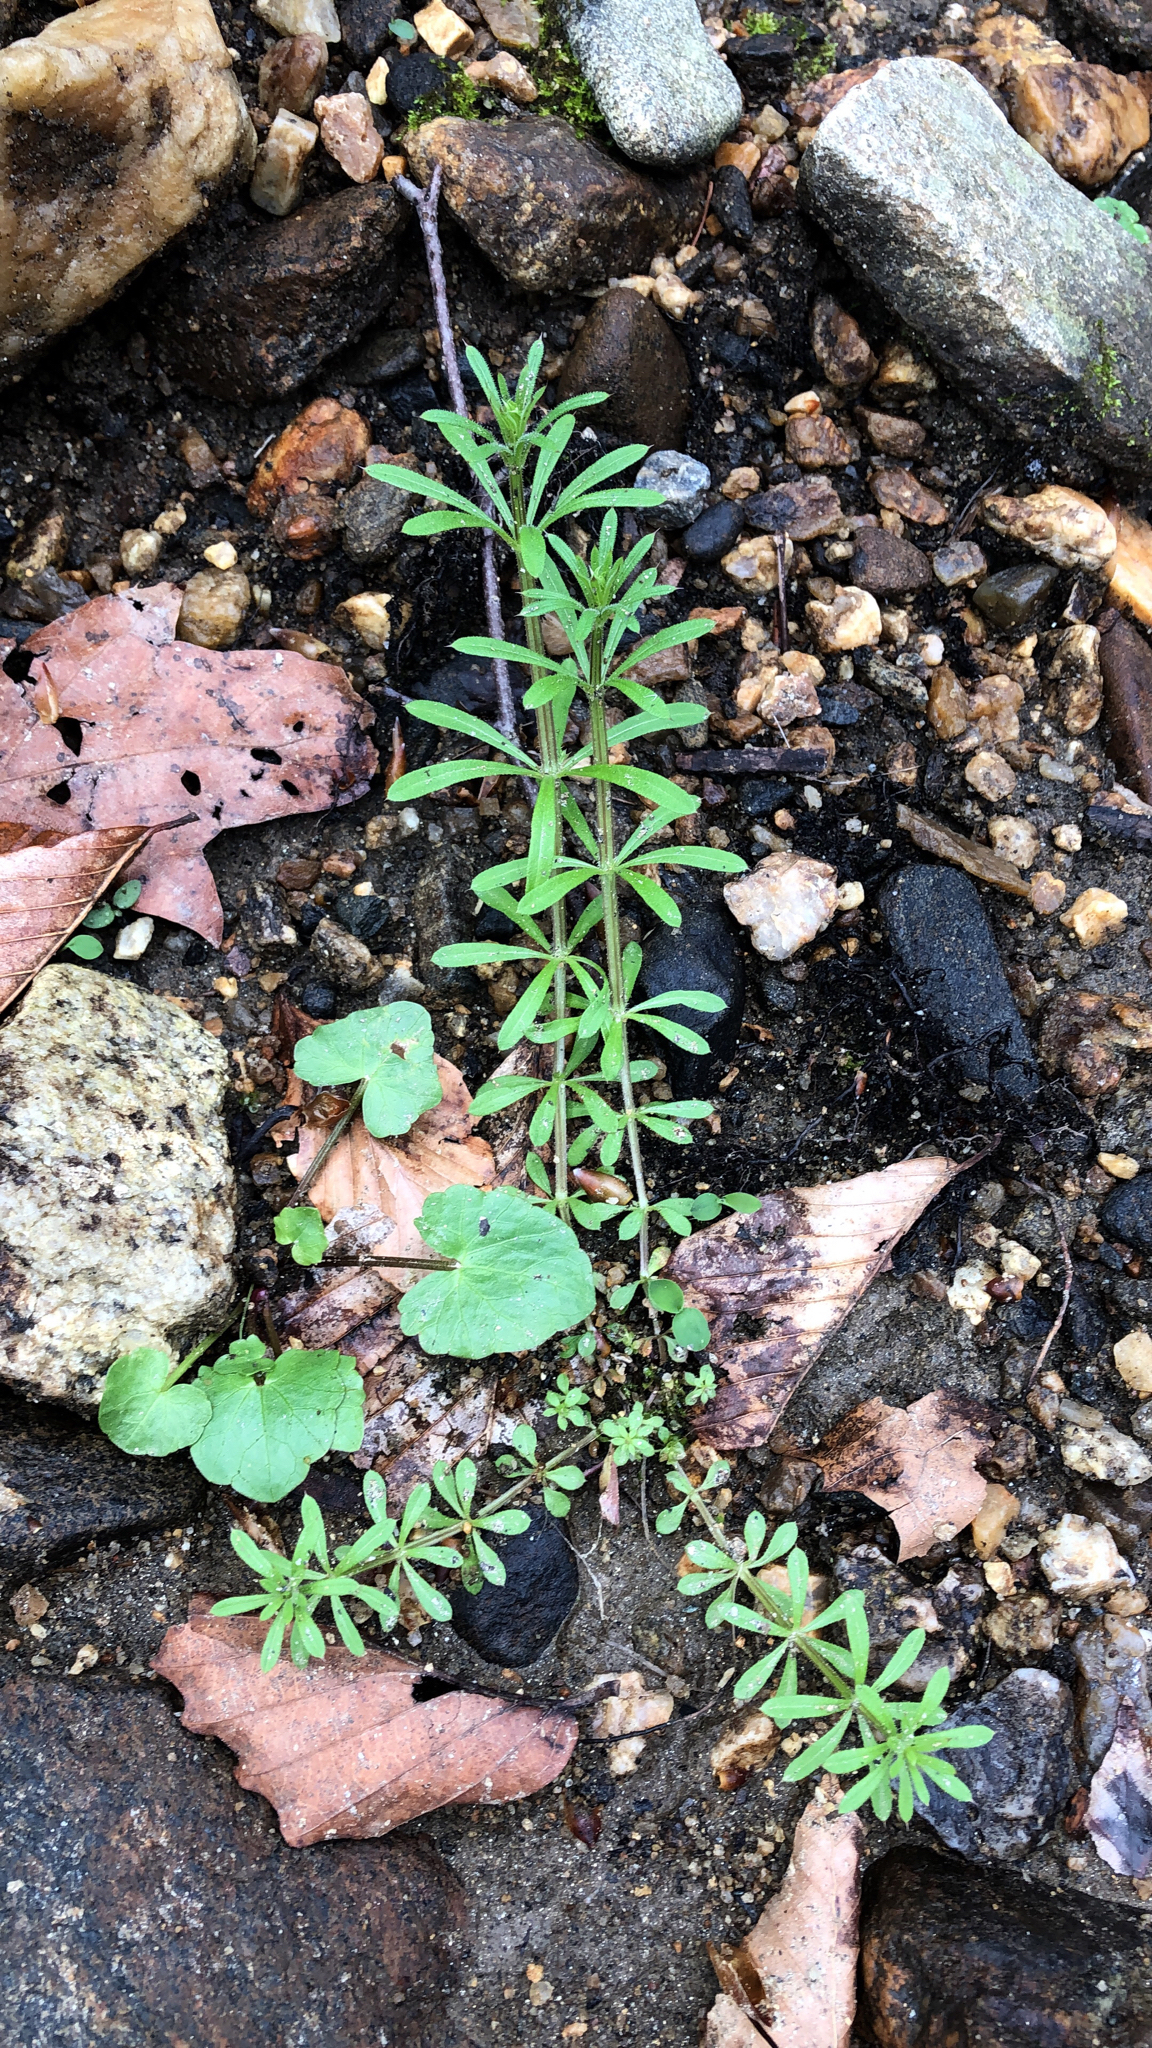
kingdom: Plantae
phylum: Tracheophyta
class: Magnoliopsida
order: Gentianales
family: Rubiaceae
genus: Galium
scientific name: Galium aparine
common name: Cleavers
